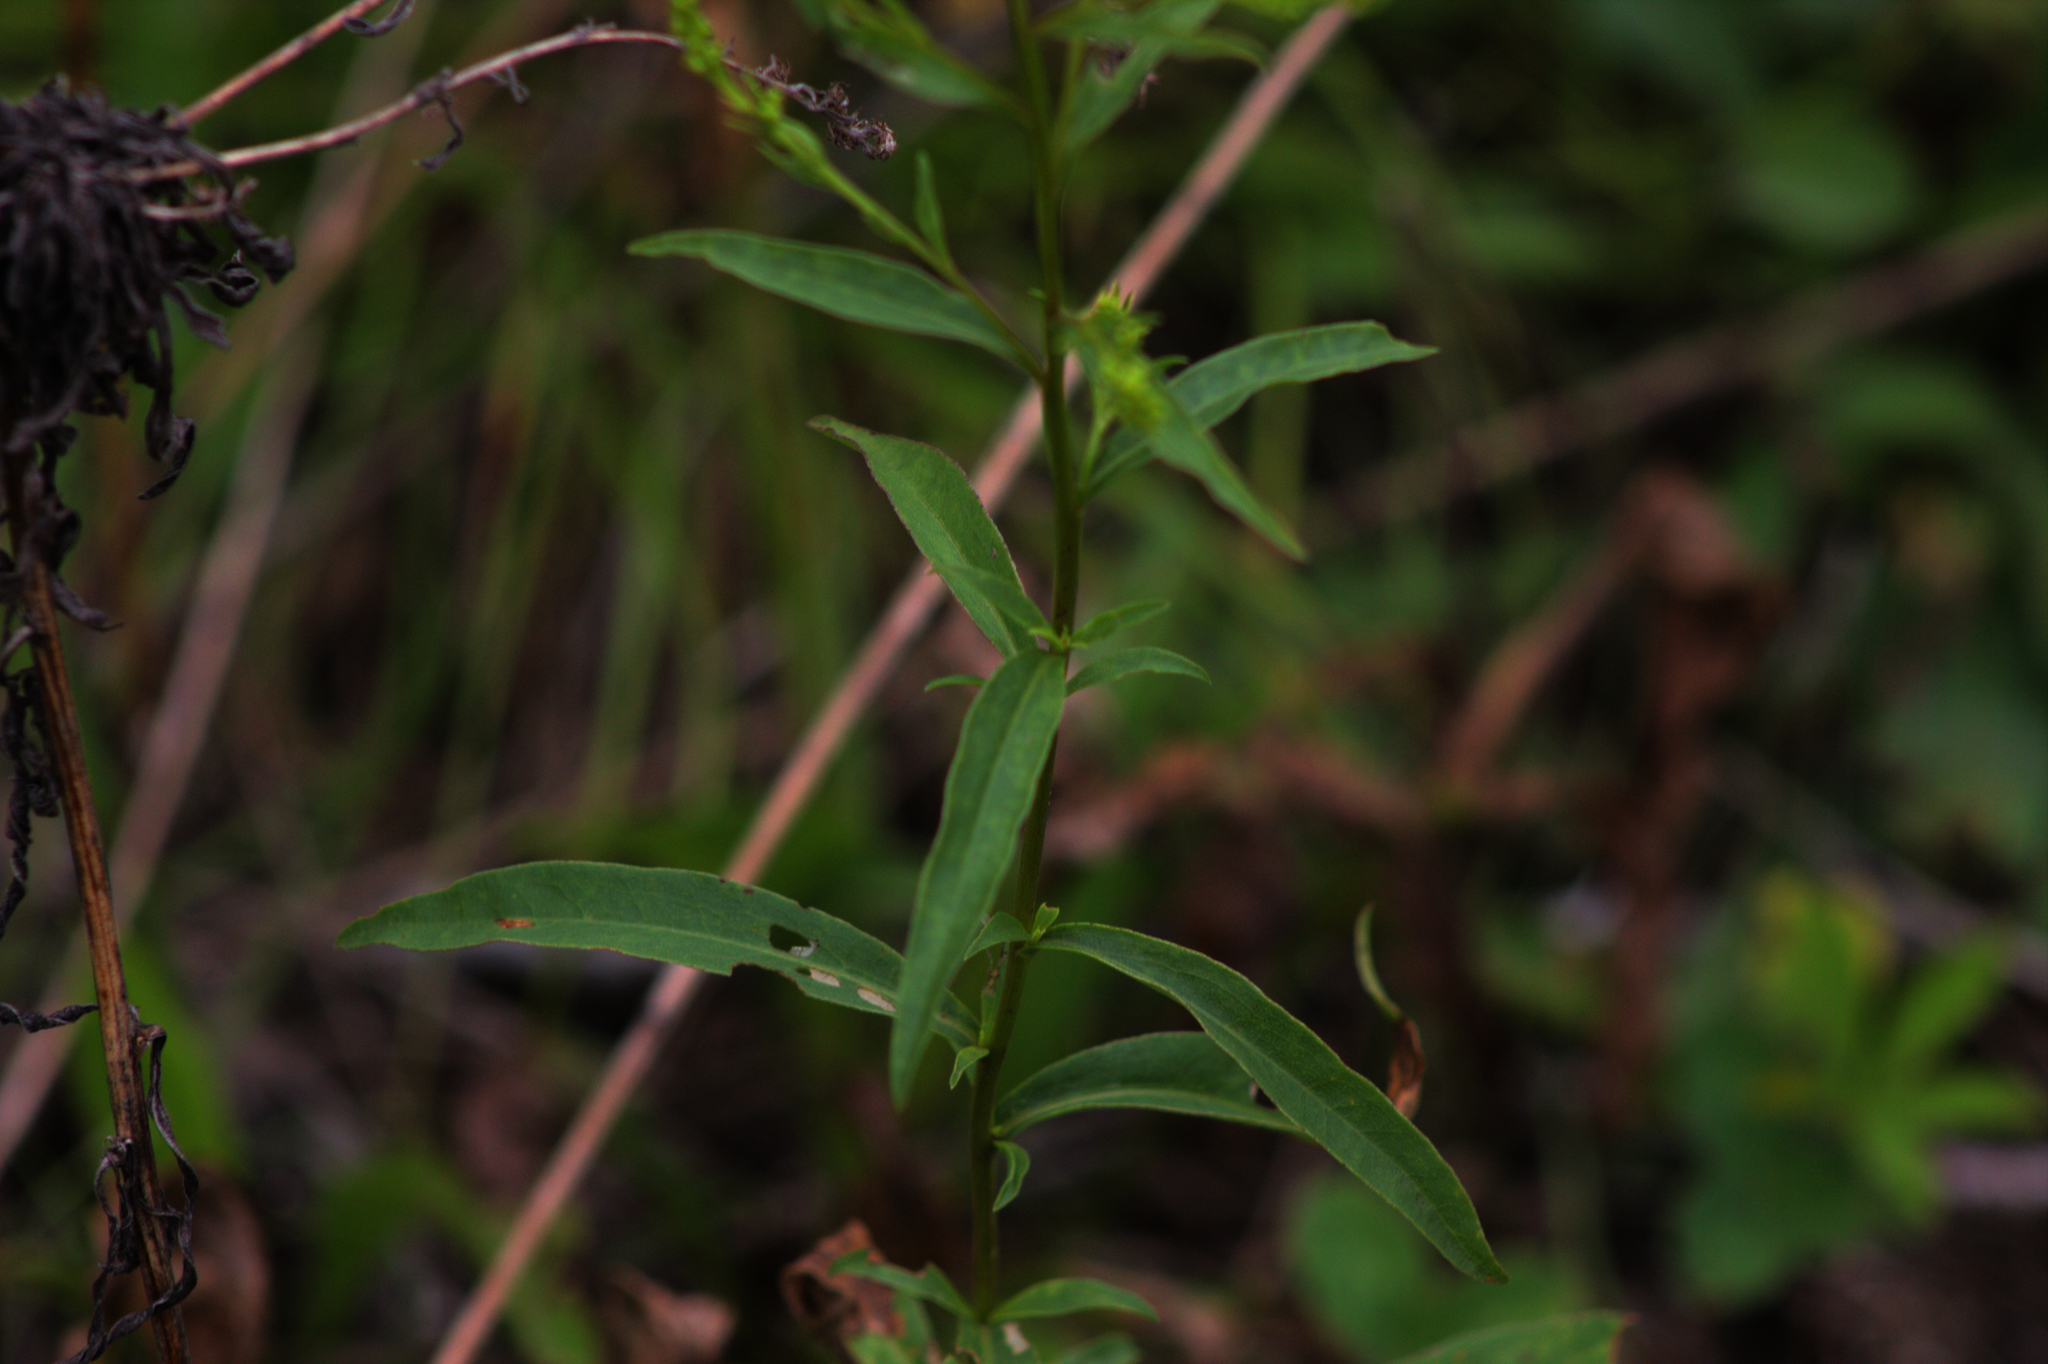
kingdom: Plantae
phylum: Tracheophyta
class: Magnoliopsida
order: Asterales
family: Asteraceae
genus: Solidago
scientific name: Solidago juncea
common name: Early goldenrod
